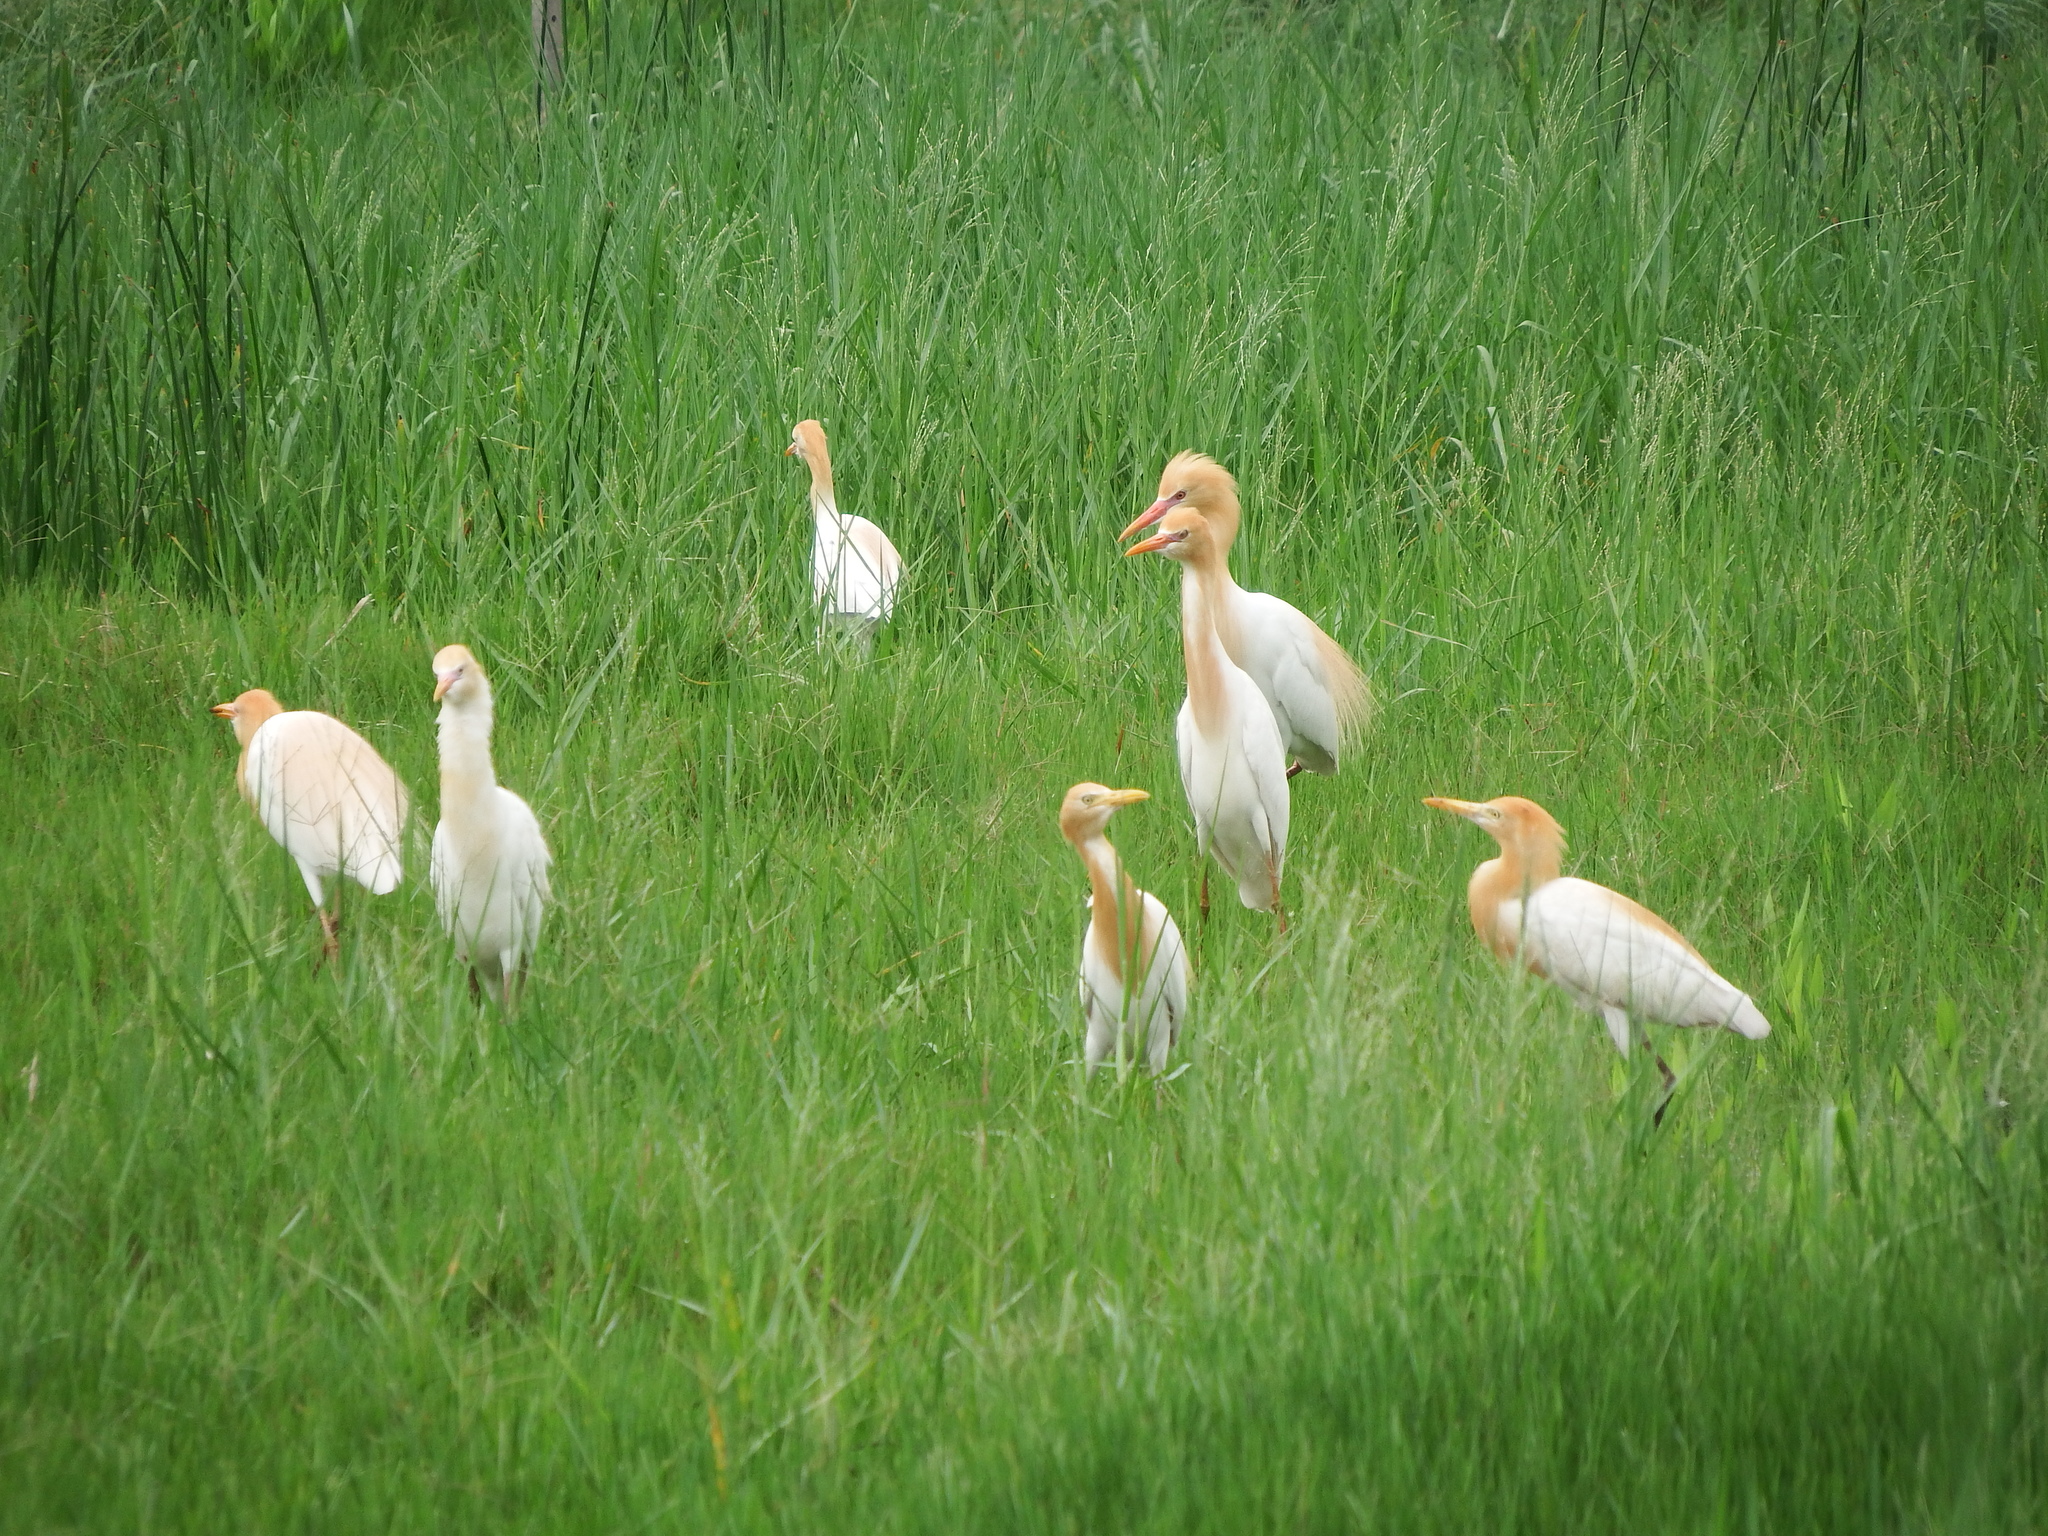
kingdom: Animalia
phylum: Chordata
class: Aves
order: Pelecaniformes
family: Ardeidae
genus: Bubulcus
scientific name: Bubulcus coromandus
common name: Eastern cattle egret
